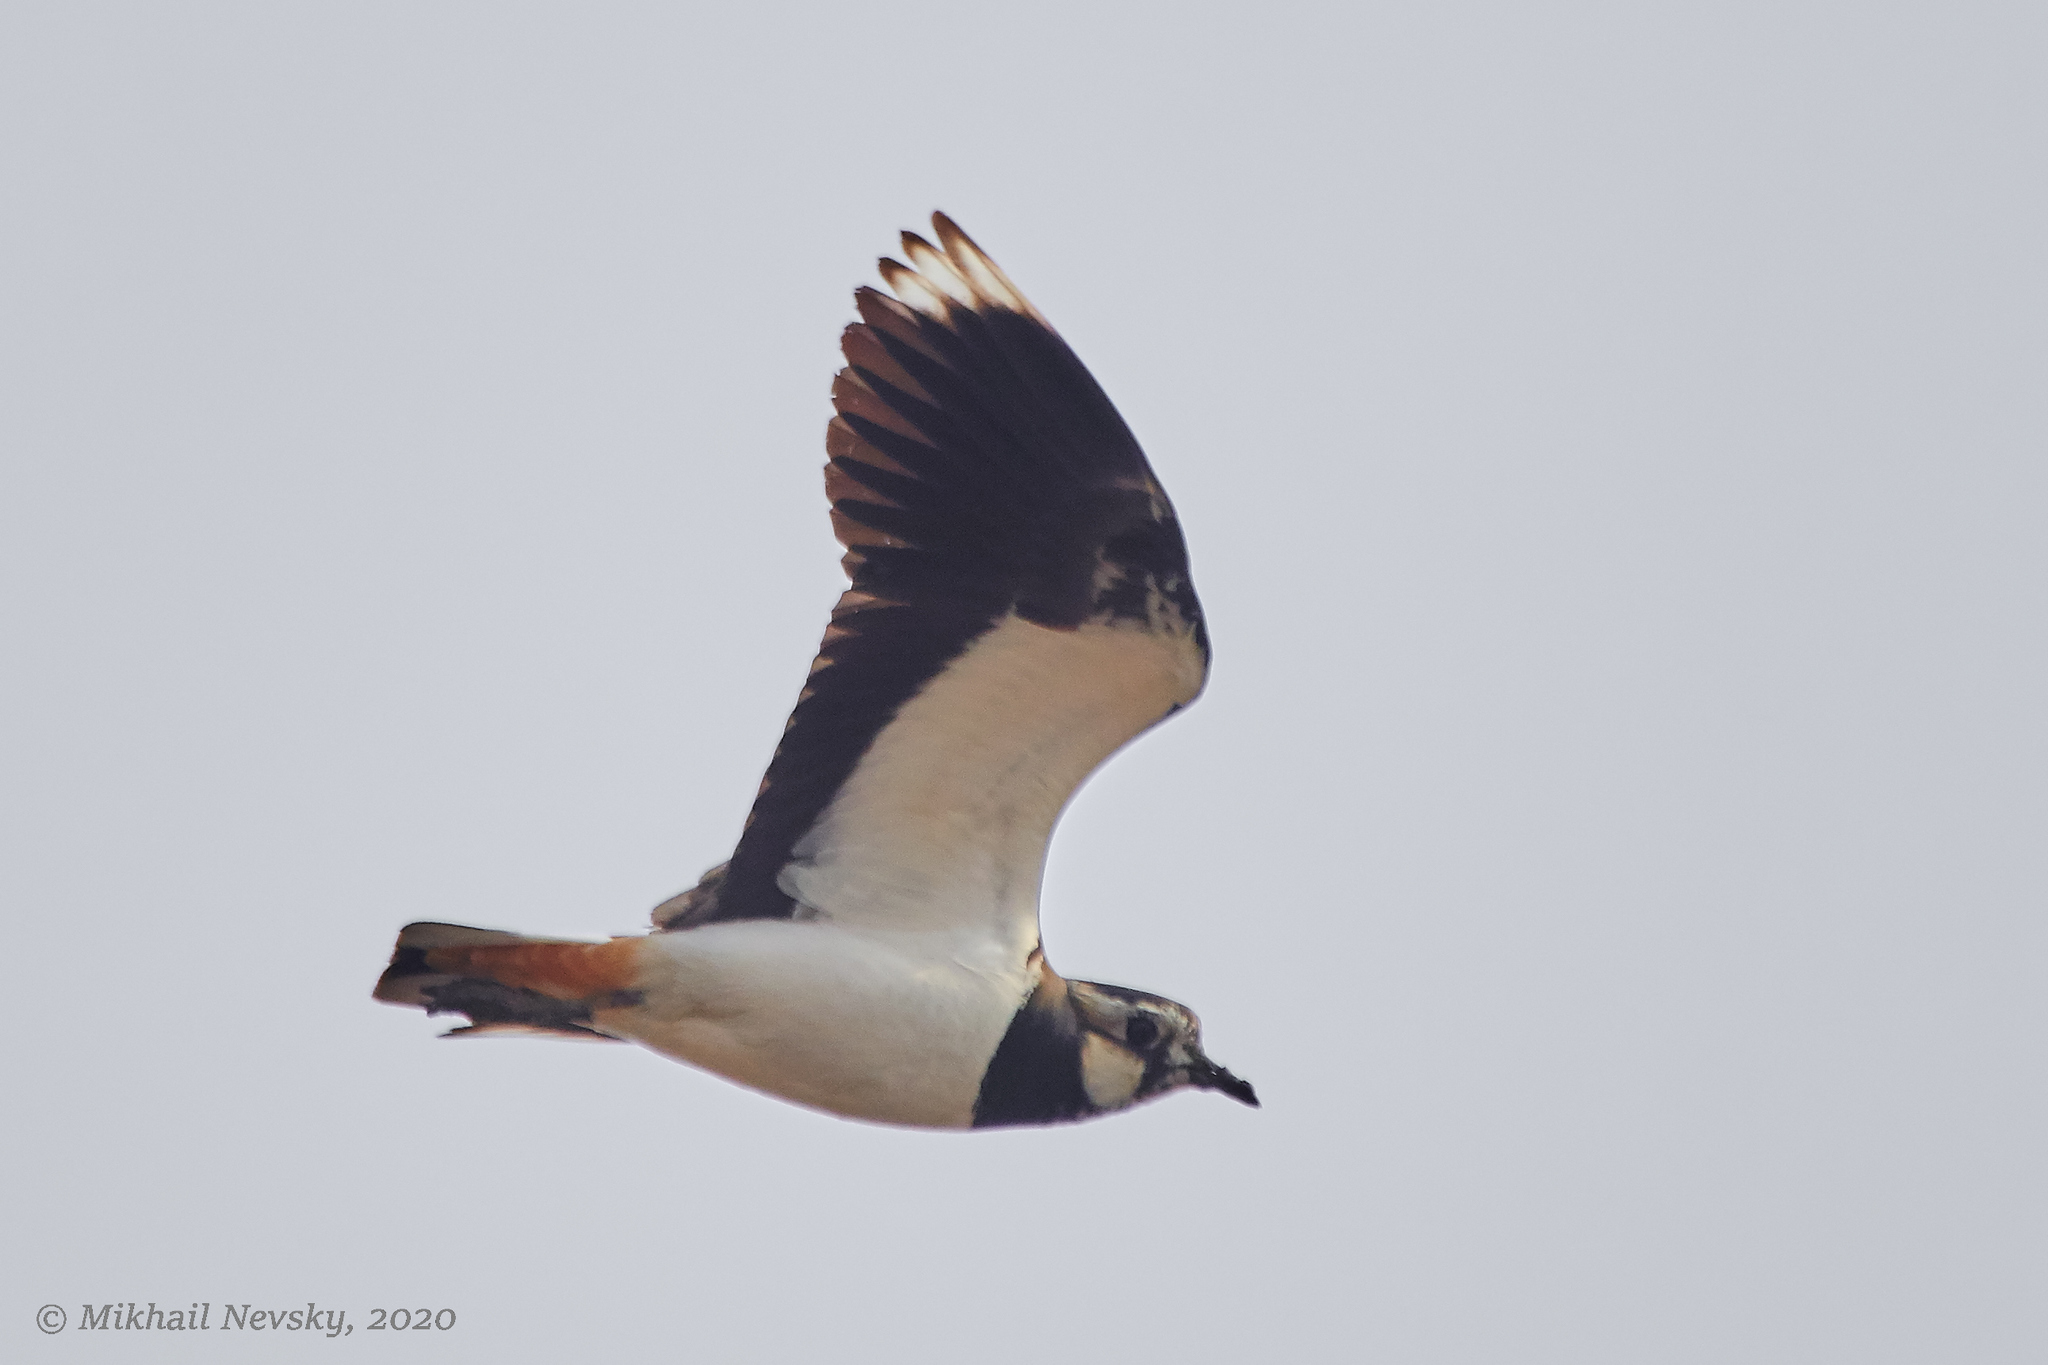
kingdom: Animalia
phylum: Chordata
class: Aves
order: Charadriiformes
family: Charadriidae
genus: Vanellus
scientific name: Vanellus vanellus
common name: Northern lapwing
